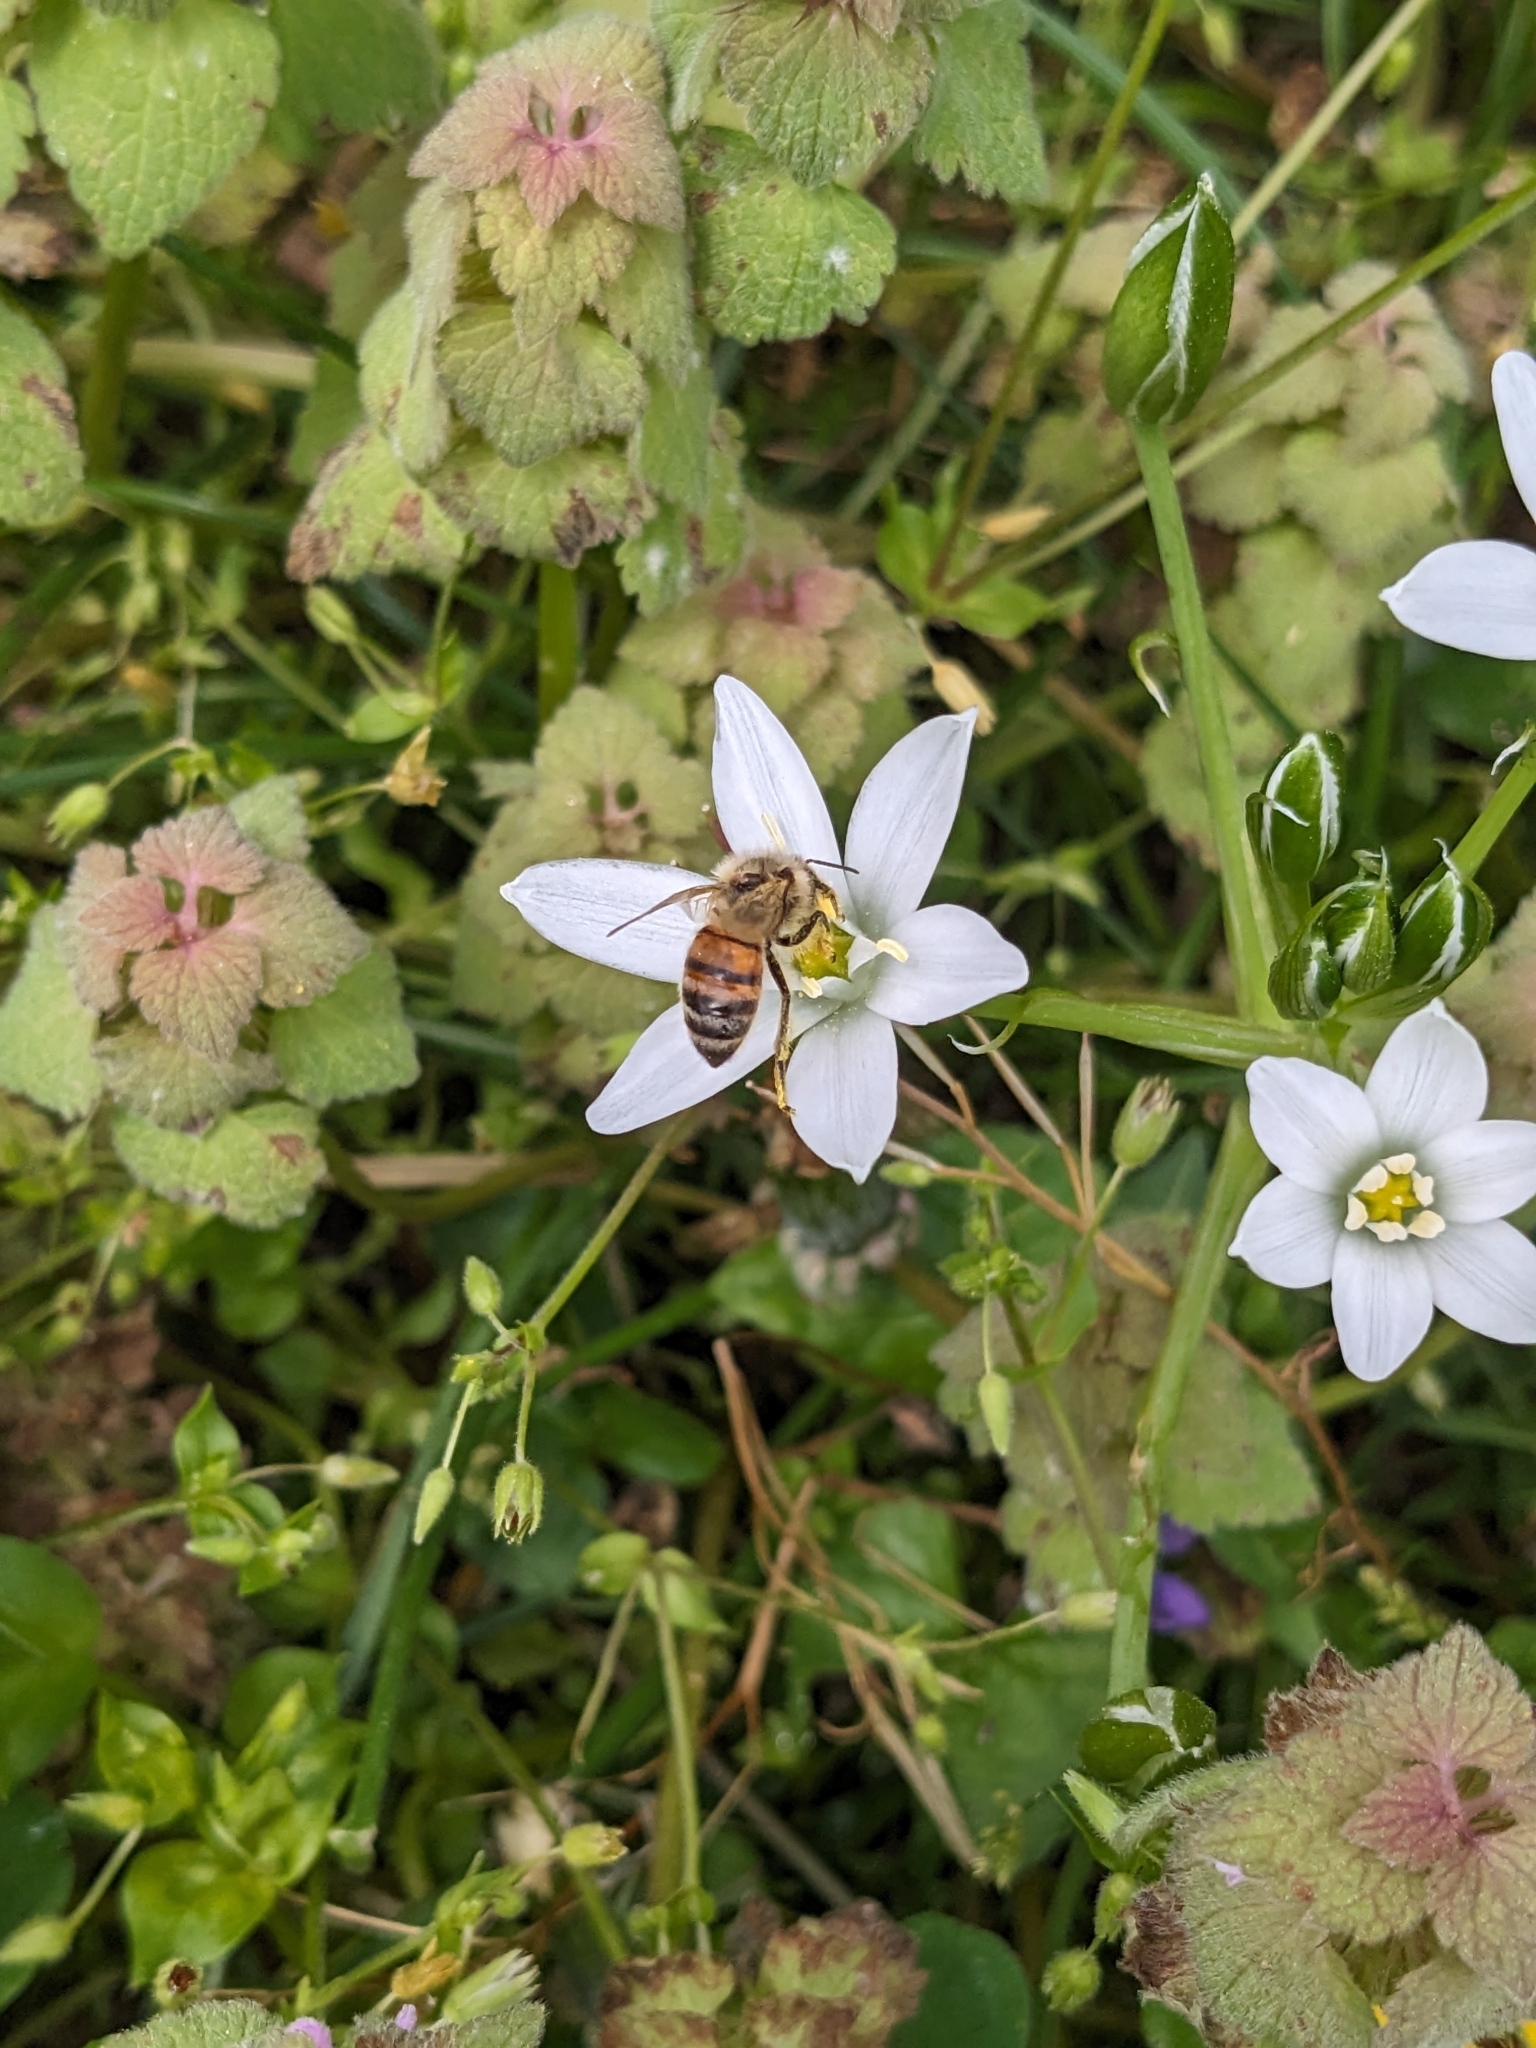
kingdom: Animalia
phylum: Arthropoda
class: Insecta
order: Hymenoptera
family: Apidae
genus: Apis
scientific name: Apis mellifera
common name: Honey bee
